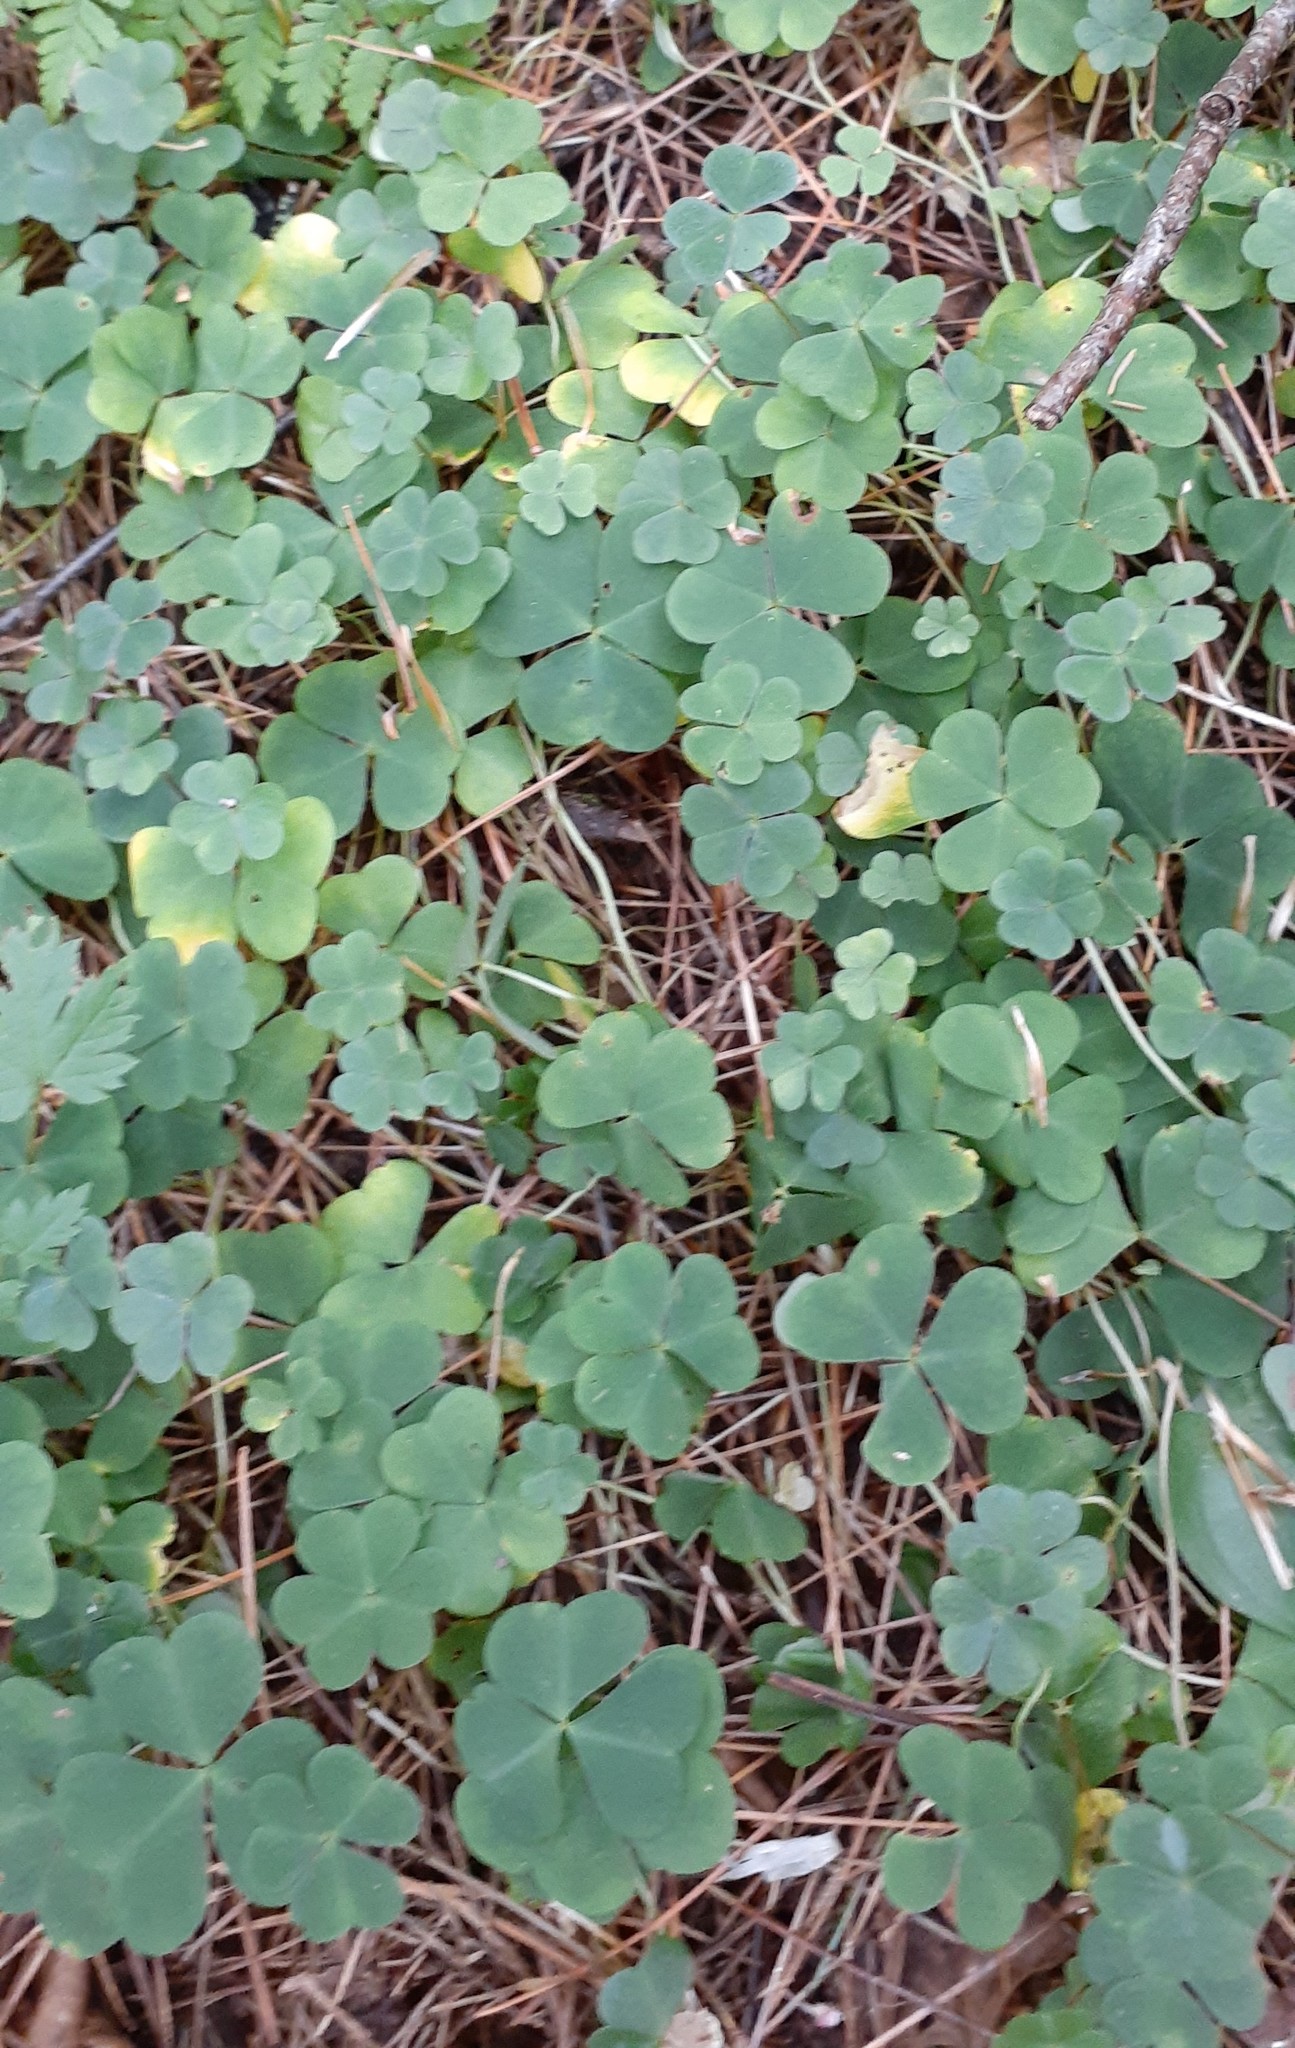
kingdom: Plantae
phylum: Tracheophyta
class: Magnoliopsida
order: Oxalidales
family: Oxalidaceae
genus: Oxalis
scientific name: Oxalis acetosella
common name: Wood-sorrel
